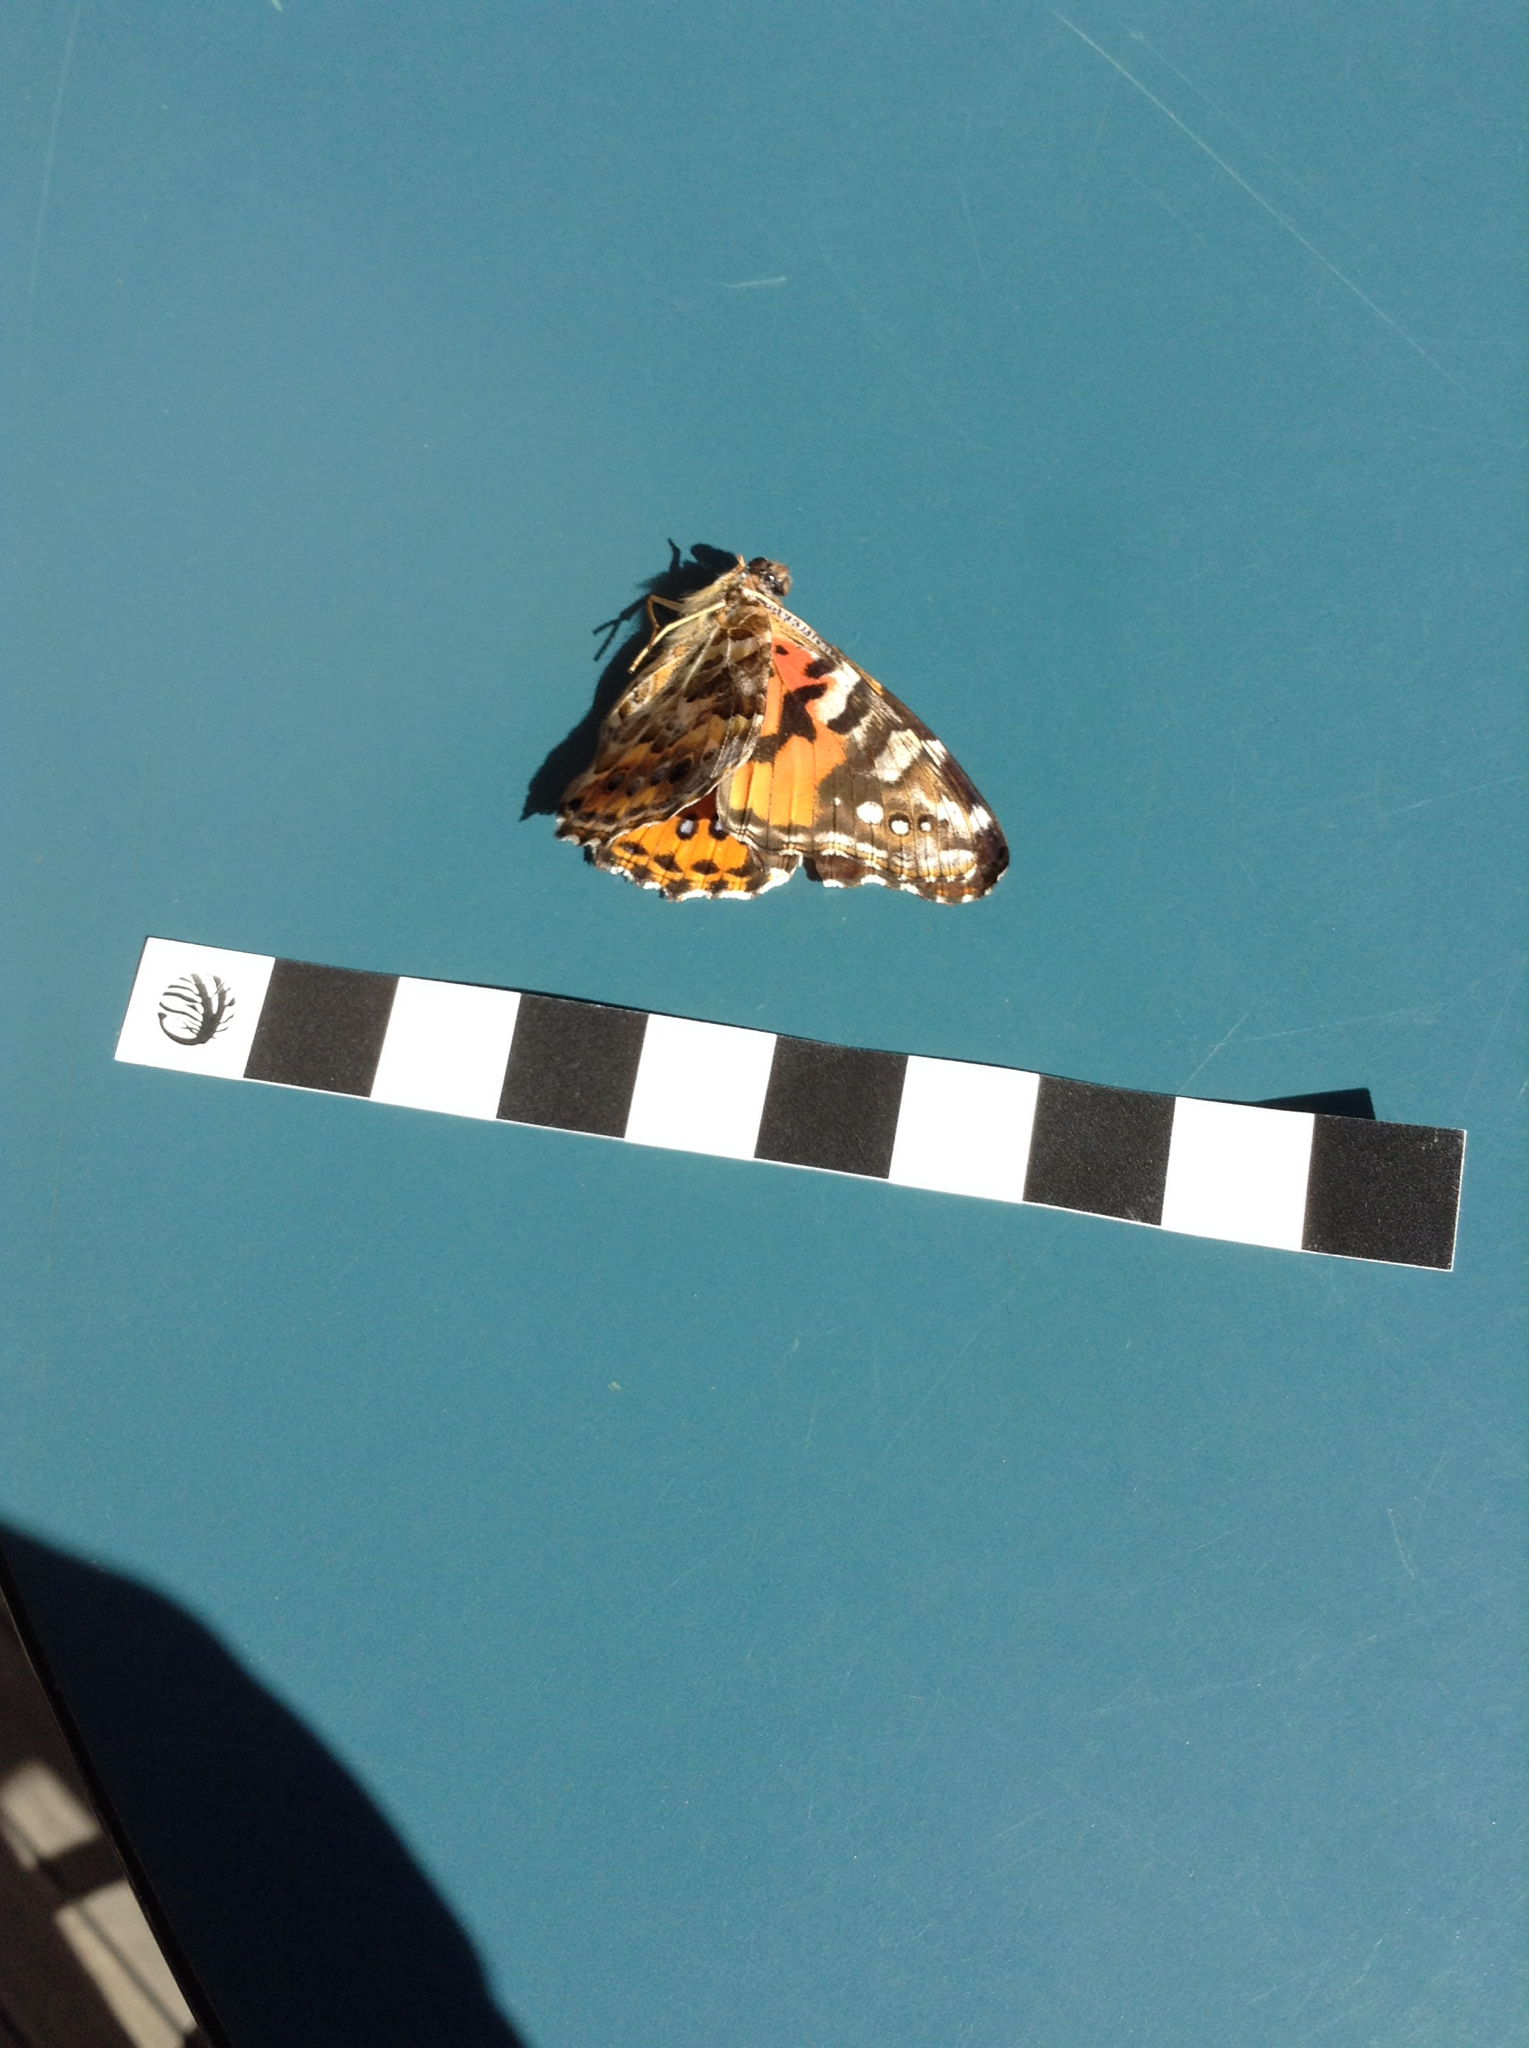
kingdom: Animalia
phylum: Arthropoda
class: Insecta
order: Lepidoptera
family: Nymphalidae
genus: Vanessa
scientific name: Vanessa kershawi
